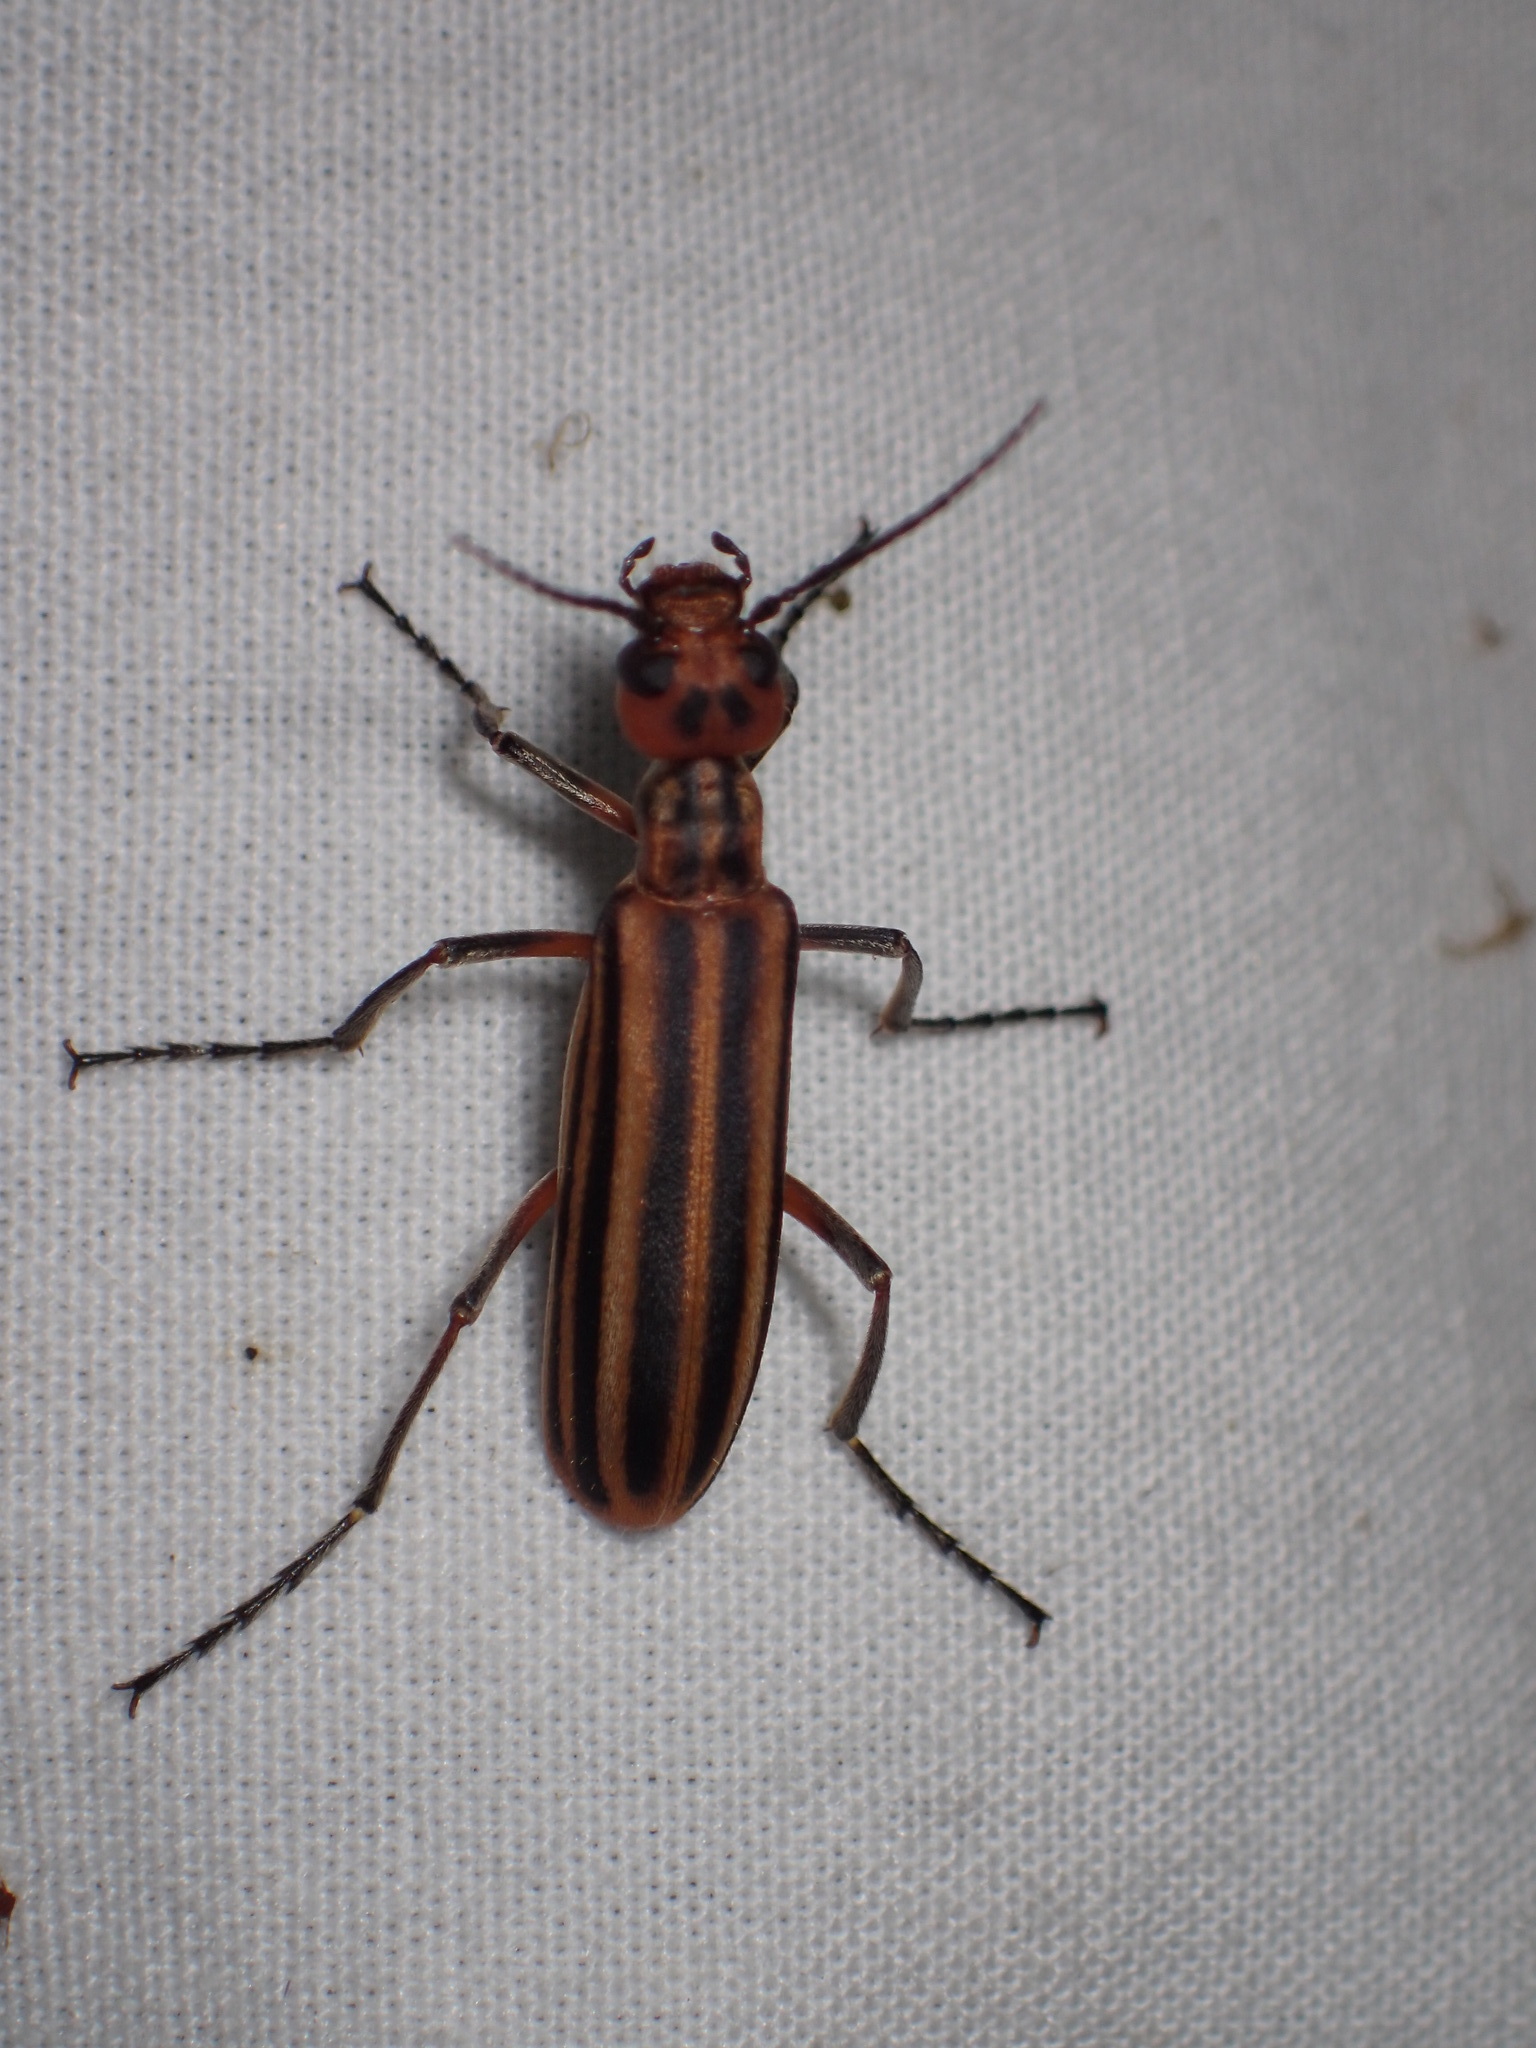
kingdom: Animalia
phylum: Arthropoda
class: Insecta
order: Coleoptera
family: Meloidae
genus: Epicauta
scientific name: Epicauta vittata
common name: Old-fashioned potato beetle
